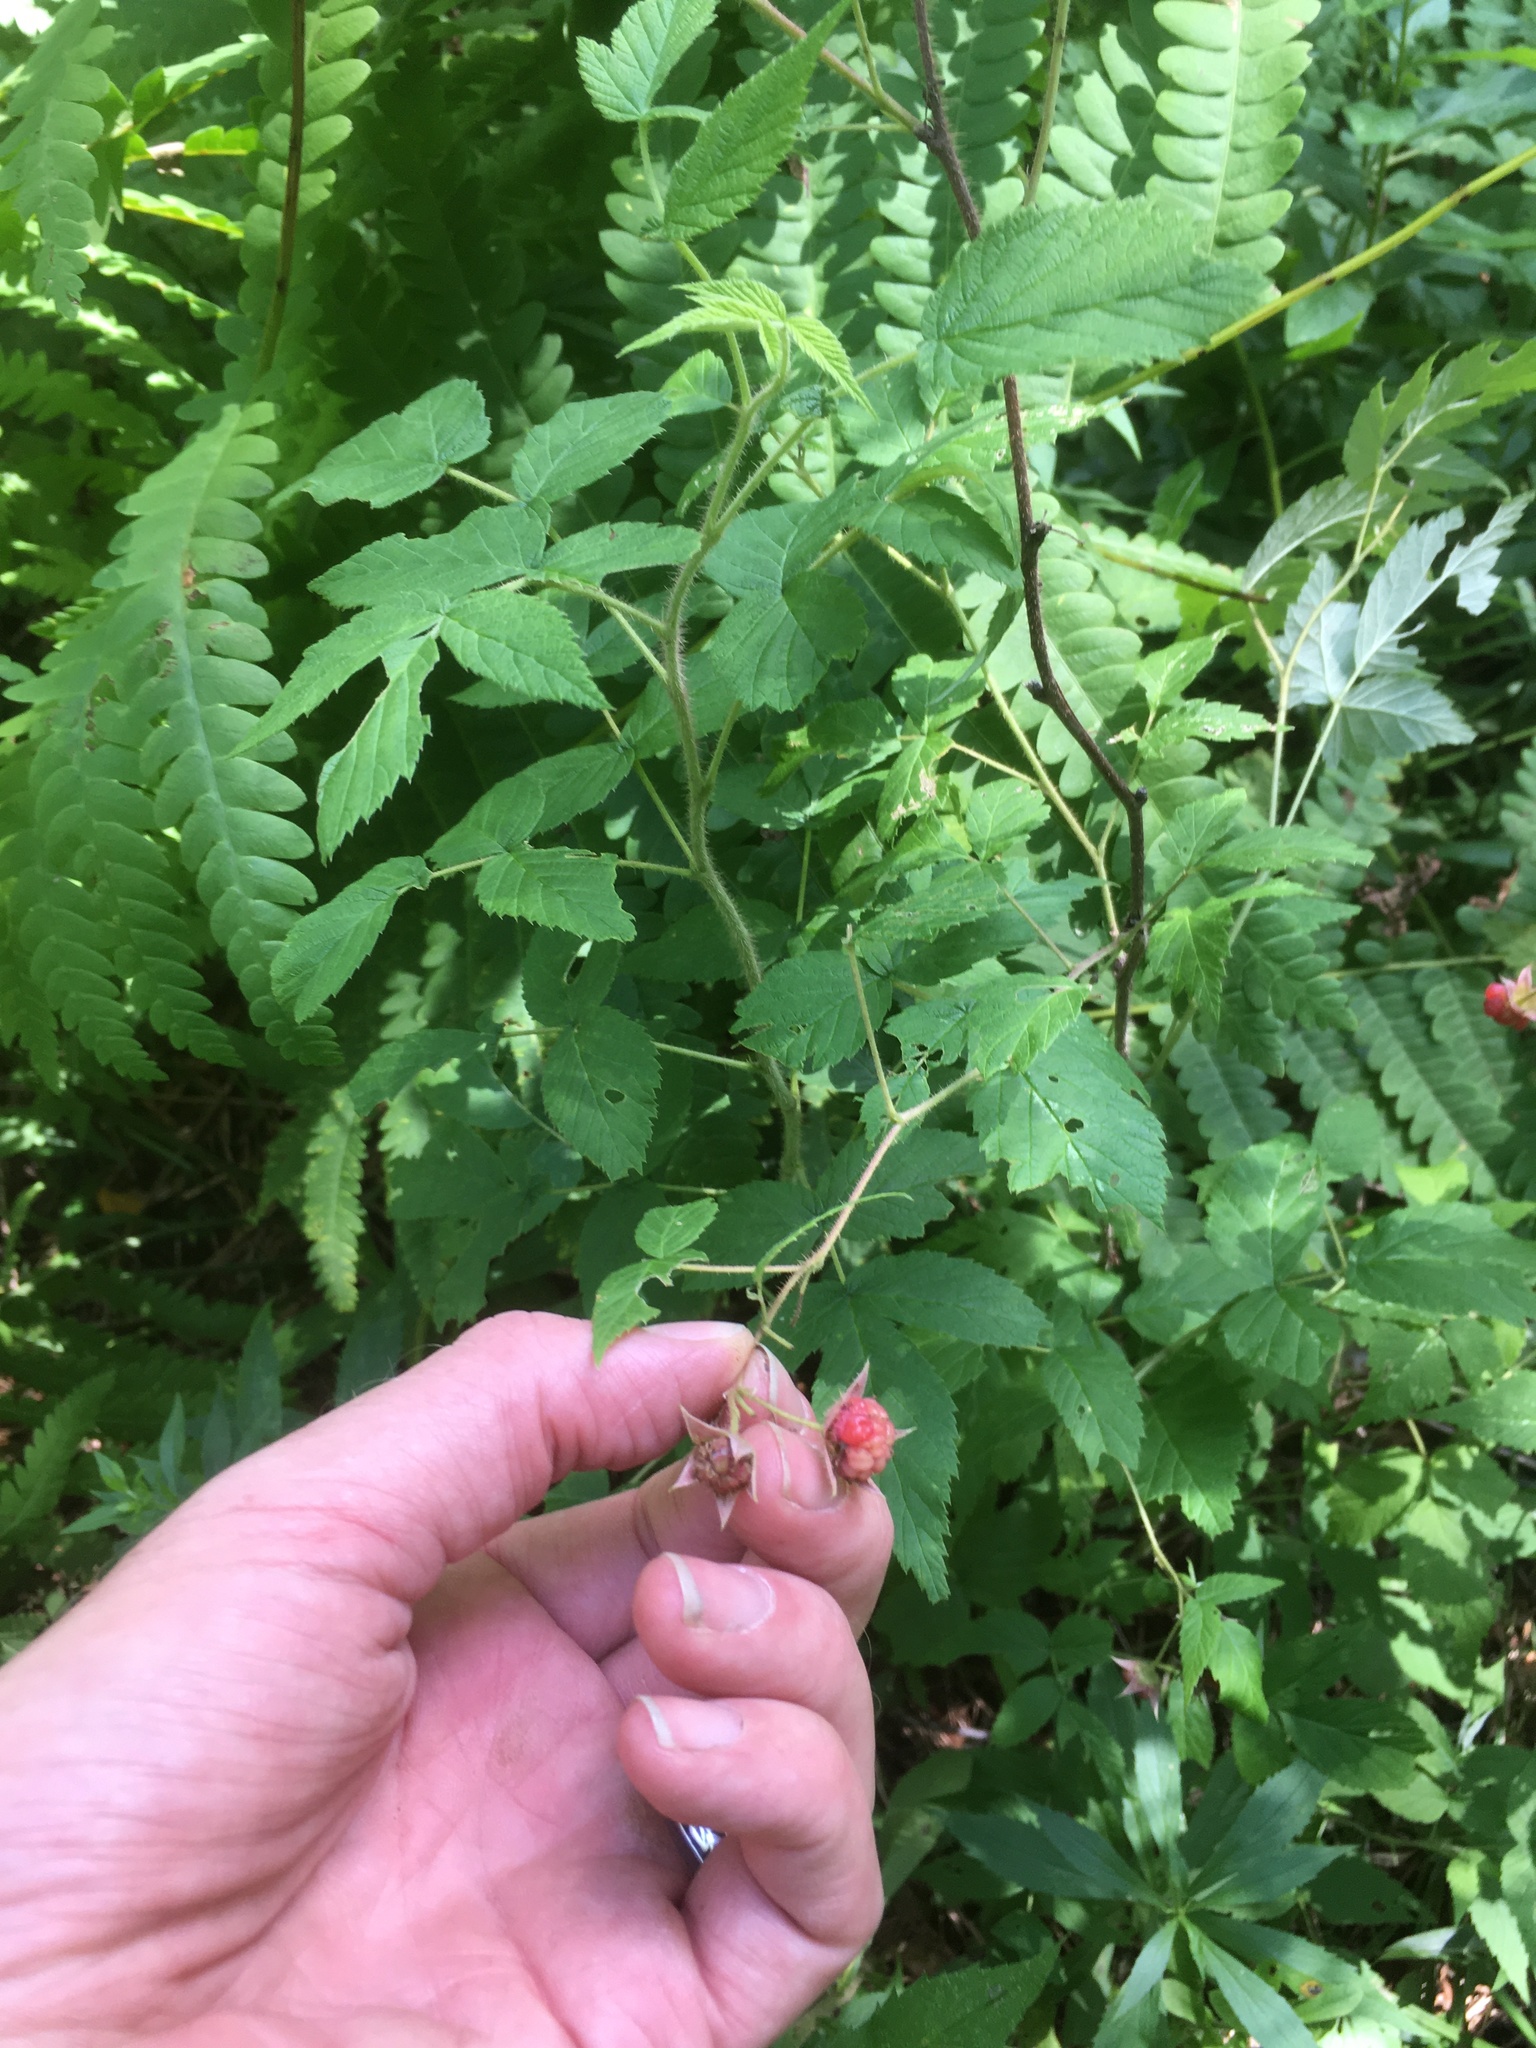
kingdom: Plantae
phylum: Tracheophyta
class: Magnoliopsida
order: Rosales
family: Rosaceae
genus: Rubus
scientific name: Rubus idaeus
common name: Raspberry
